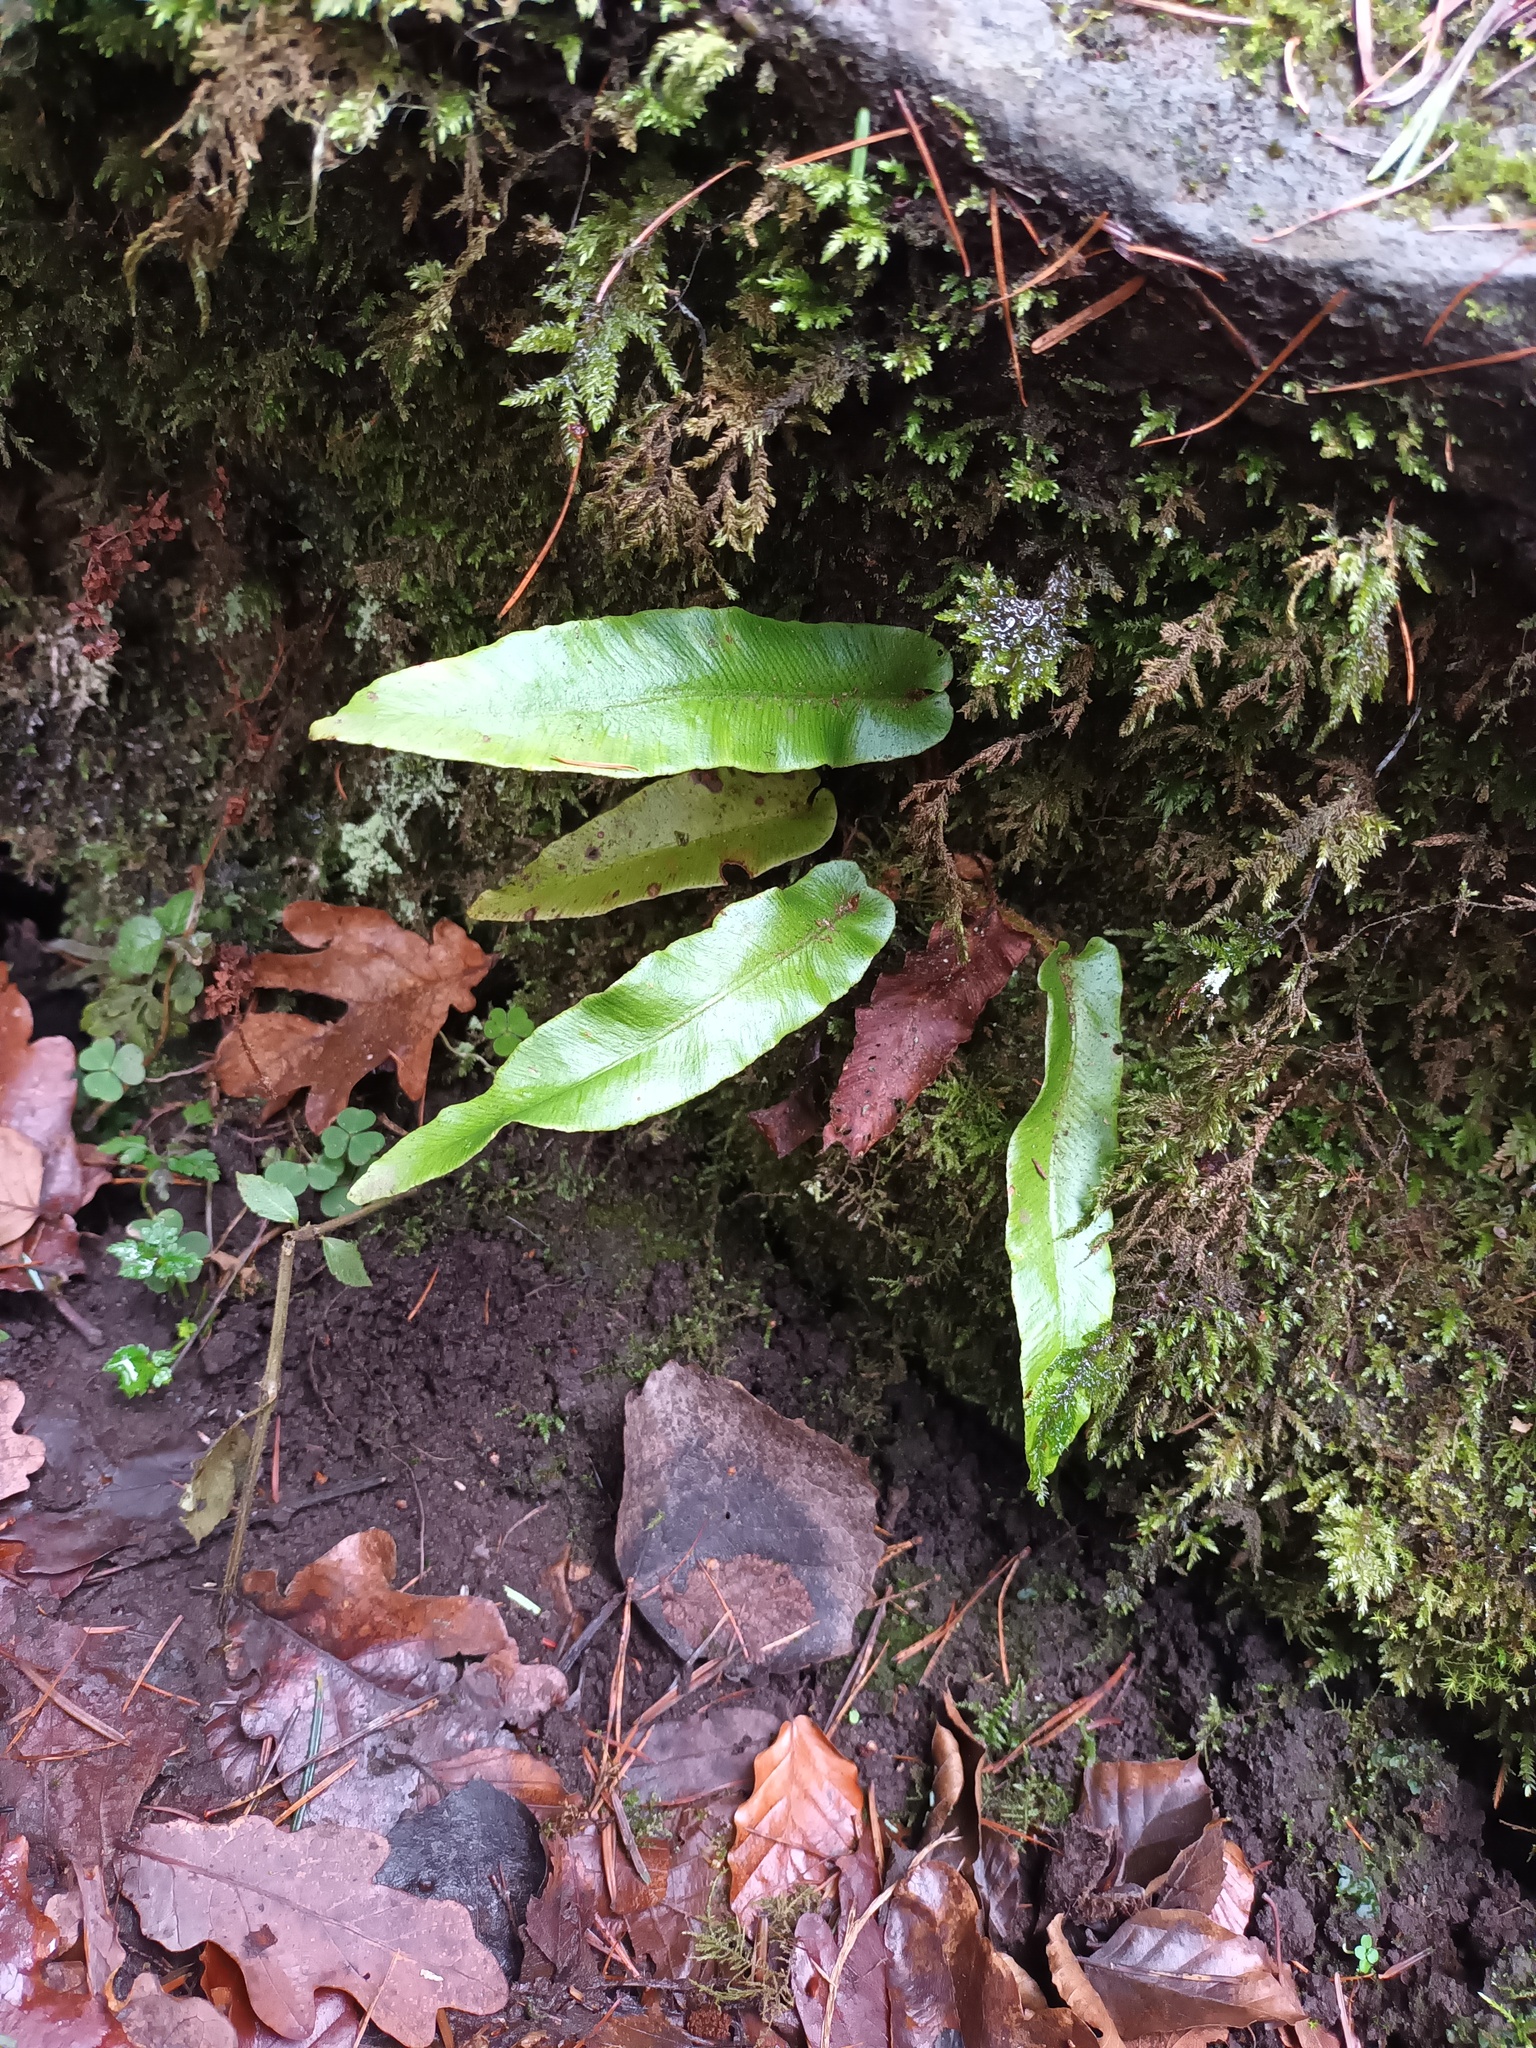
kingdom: Plantae
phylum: Tracheophyta
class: Polypodiopsida
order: Polypodiales
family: Aspleniaceae
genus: Asplenium
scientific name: Asplenium scolopendrium
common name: Hart's-tongue fern
